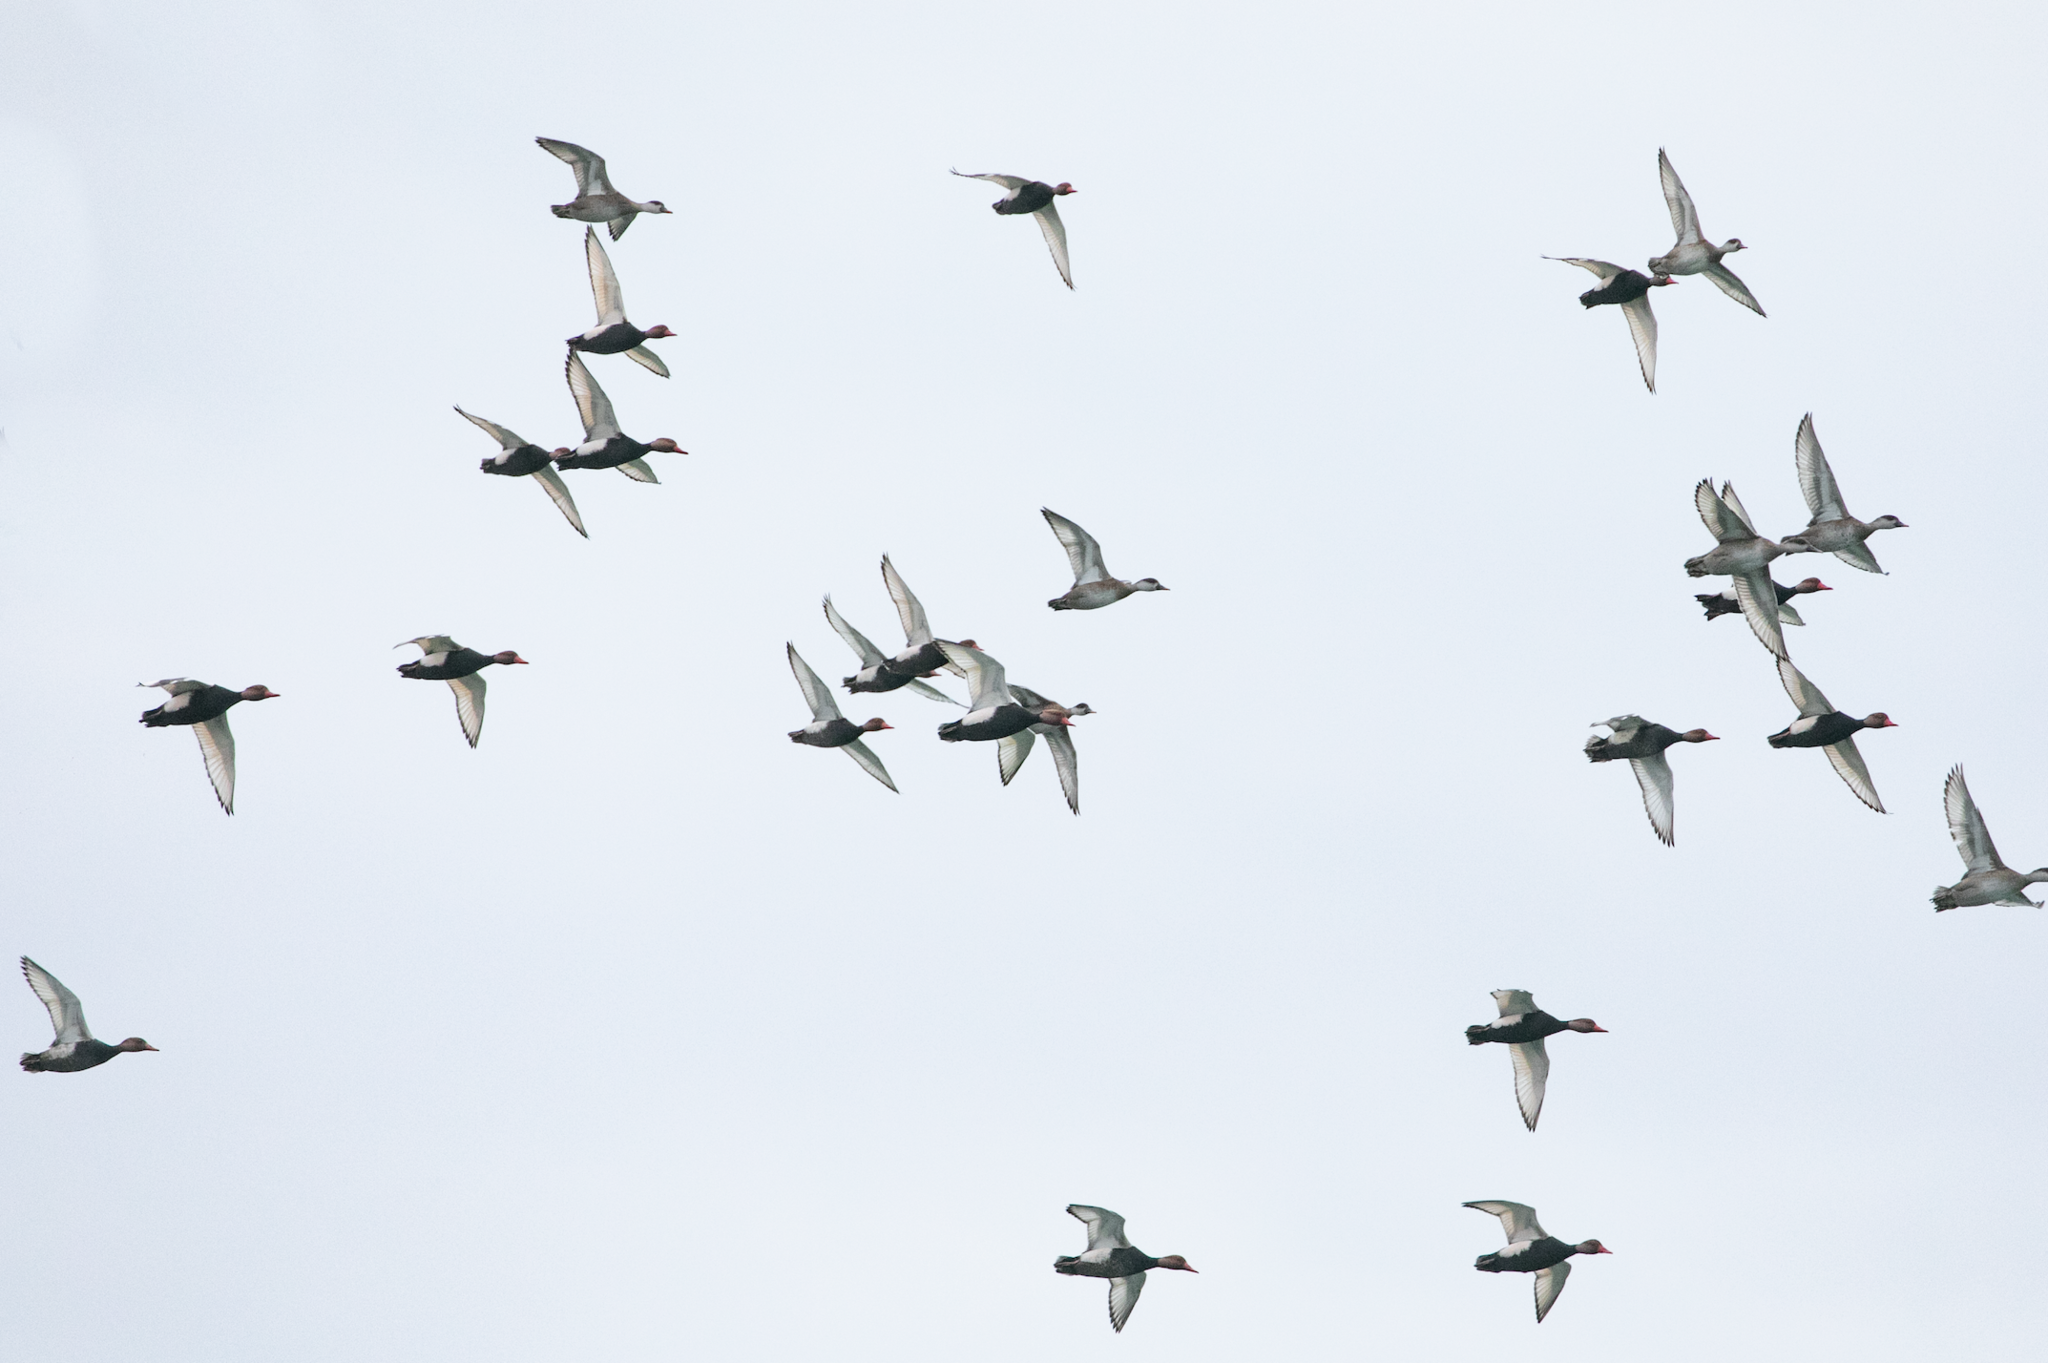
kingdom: Animalia
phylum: Chordata
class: Aves
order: Anseriformes
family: Anatidae
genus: Netta
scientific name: Netta rufina
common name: Red-crested pochard
